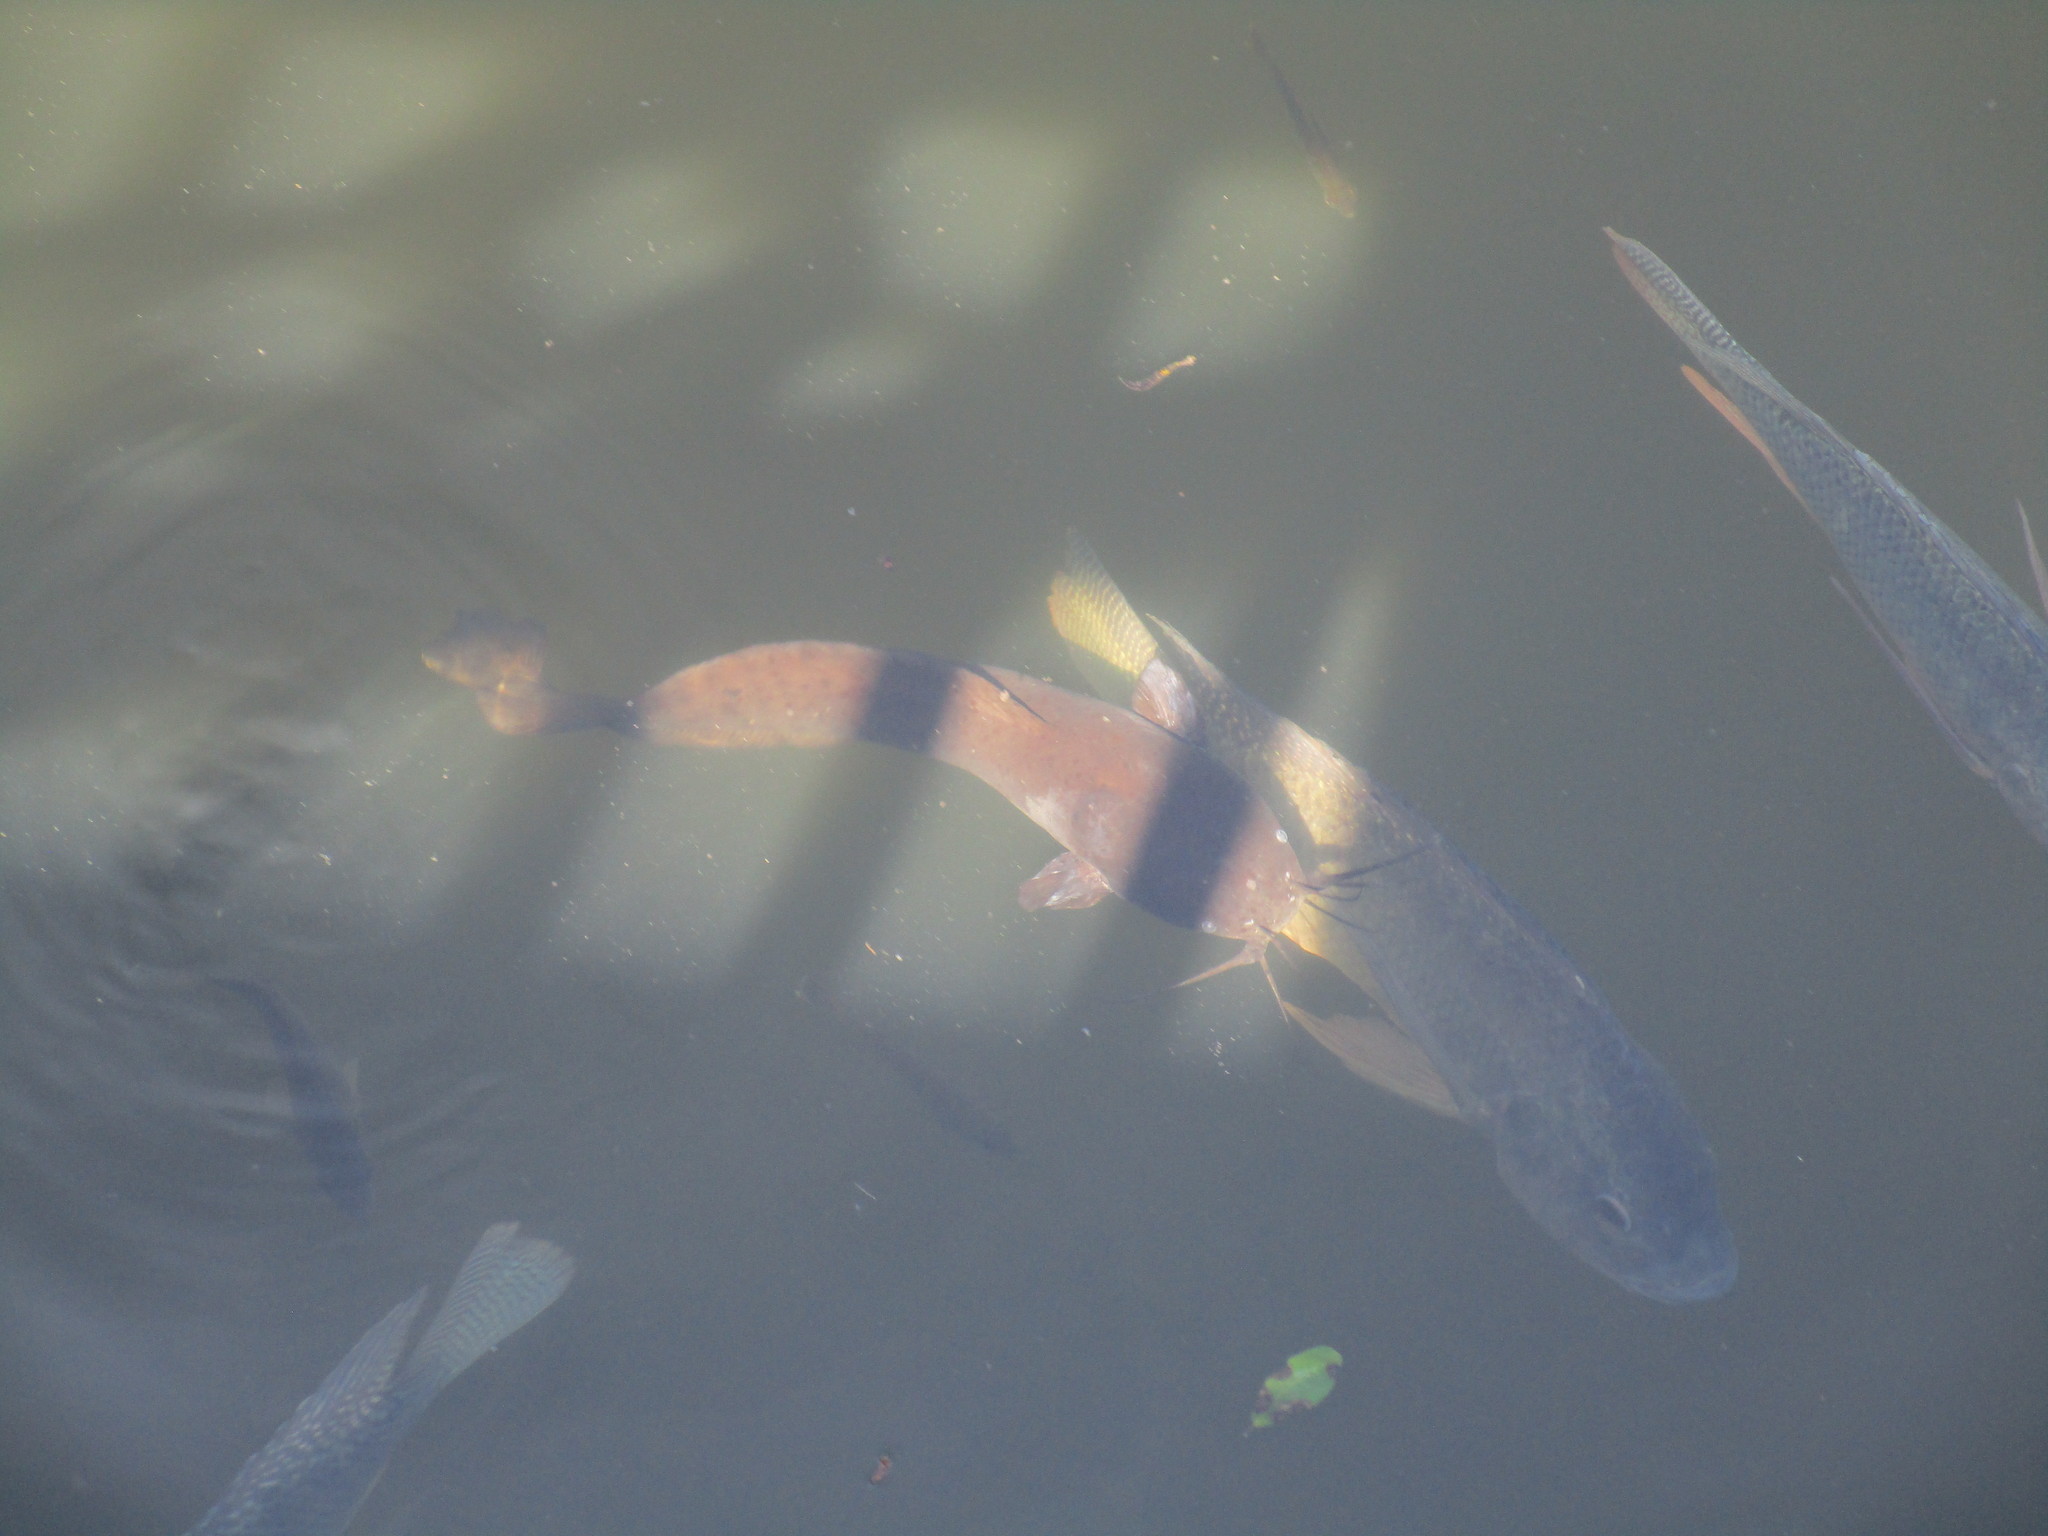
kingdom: Animalia
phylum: Chordata
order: Siluriformes
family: Clariidae
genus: Clarias
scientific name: Clarias batrachus
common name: Walking catfish
